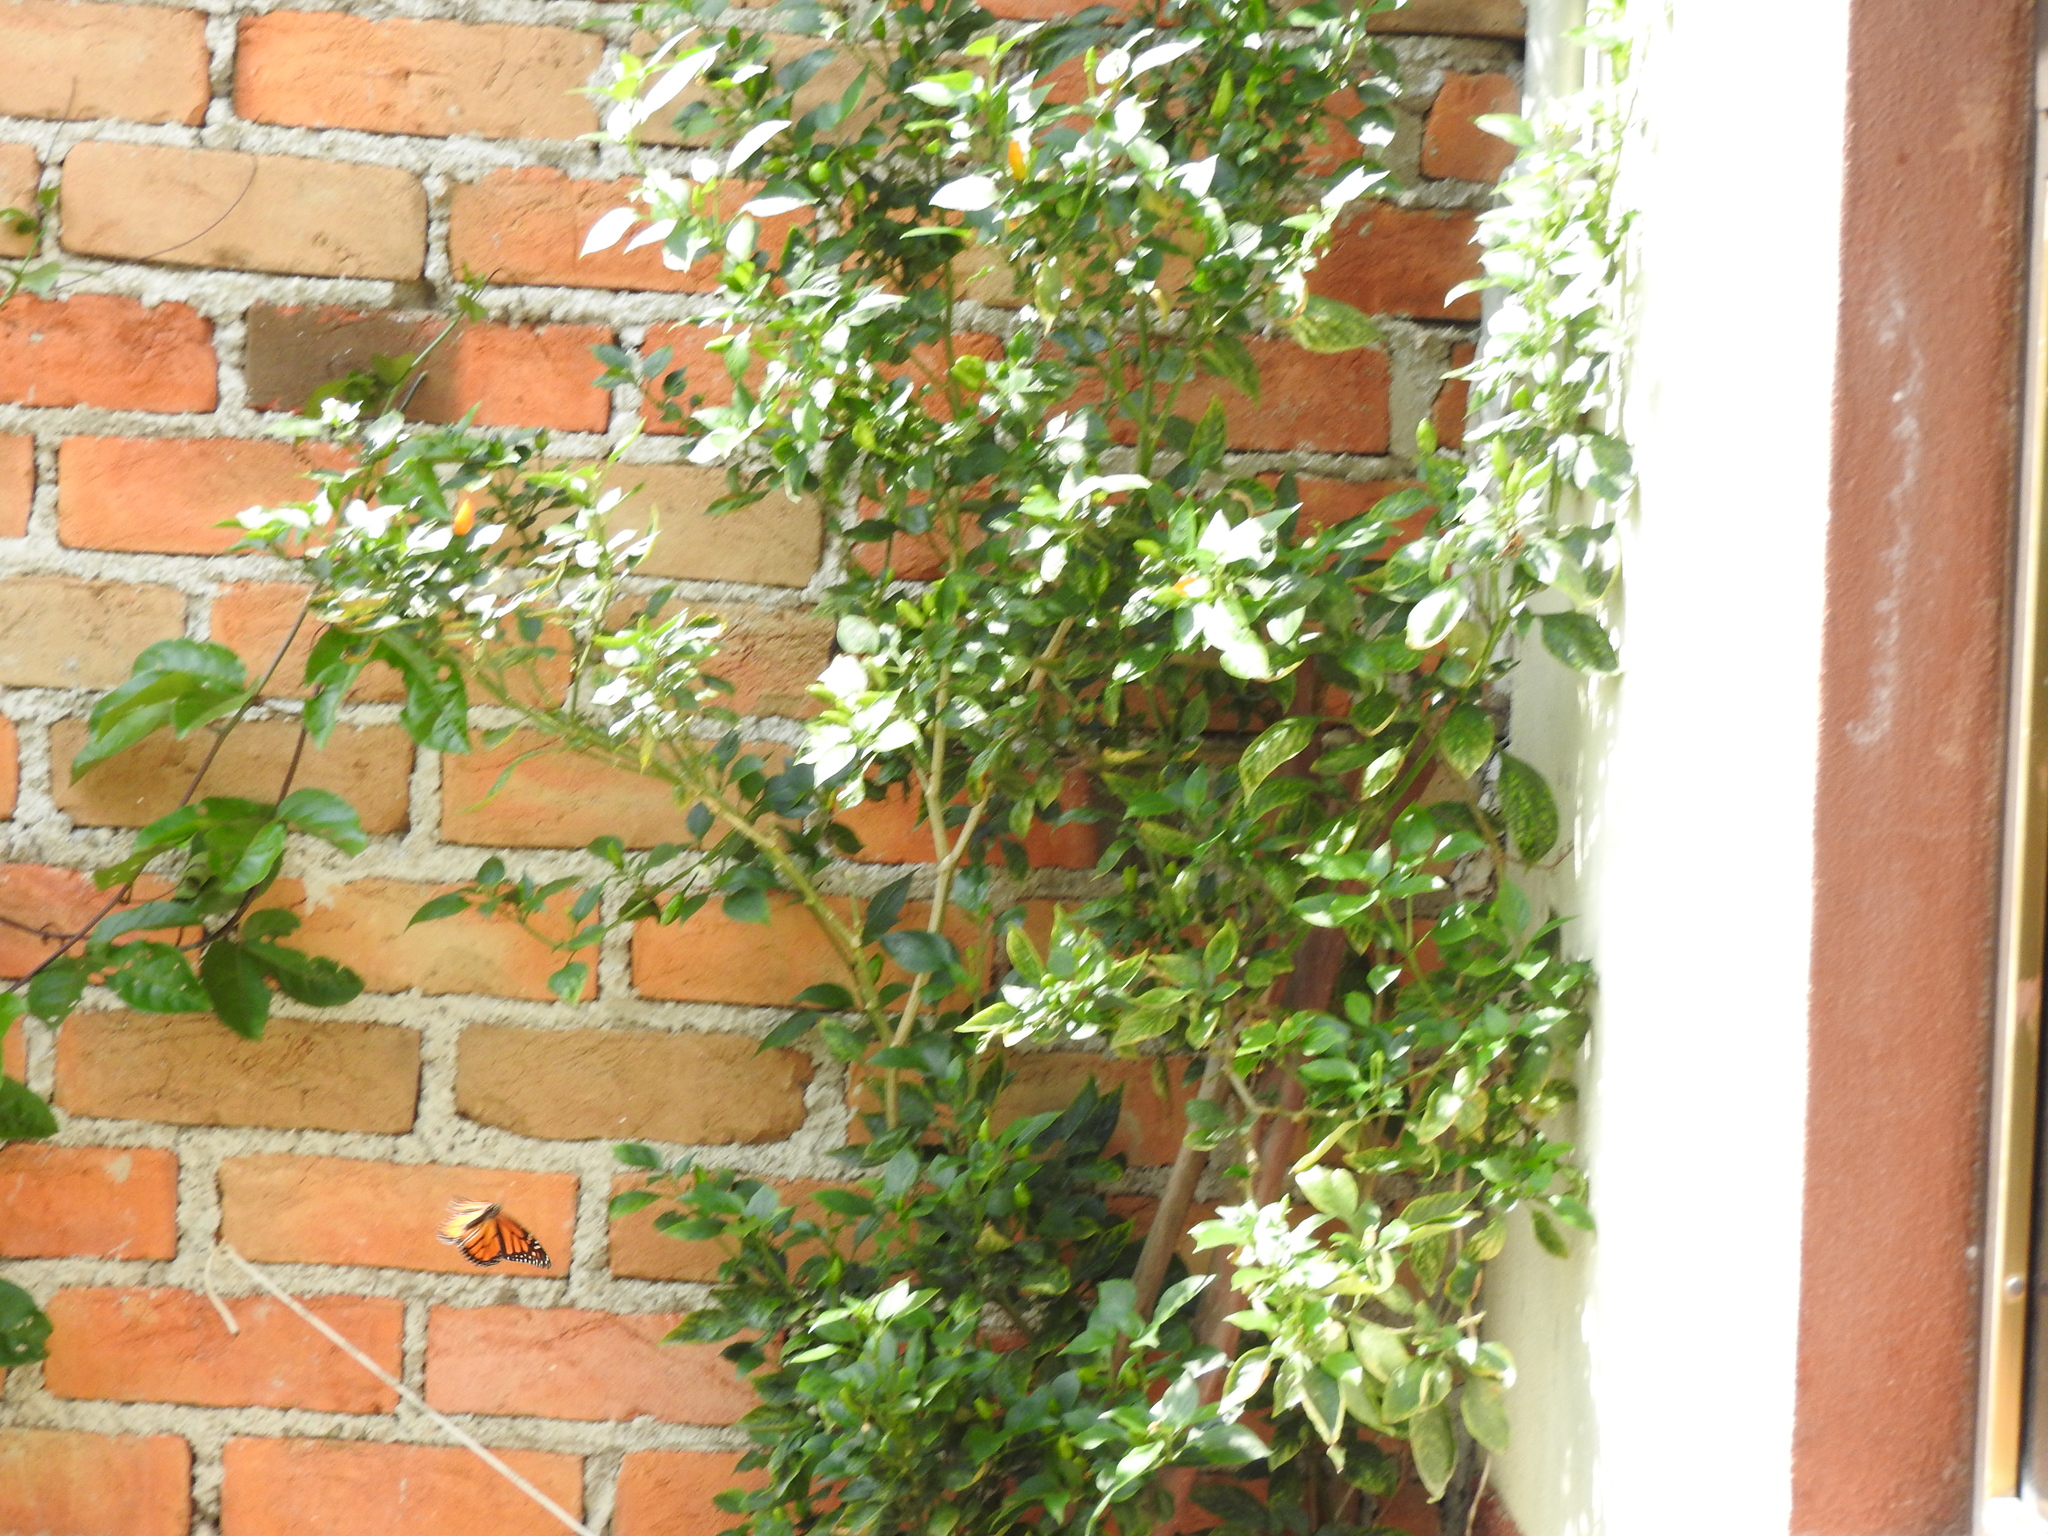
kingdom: Animalia
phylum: Arthropoda
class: Insecta
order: Lepidoptera
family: Nymphalidae
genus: Danaus
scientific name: Danaus plexippus
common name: Monarch
